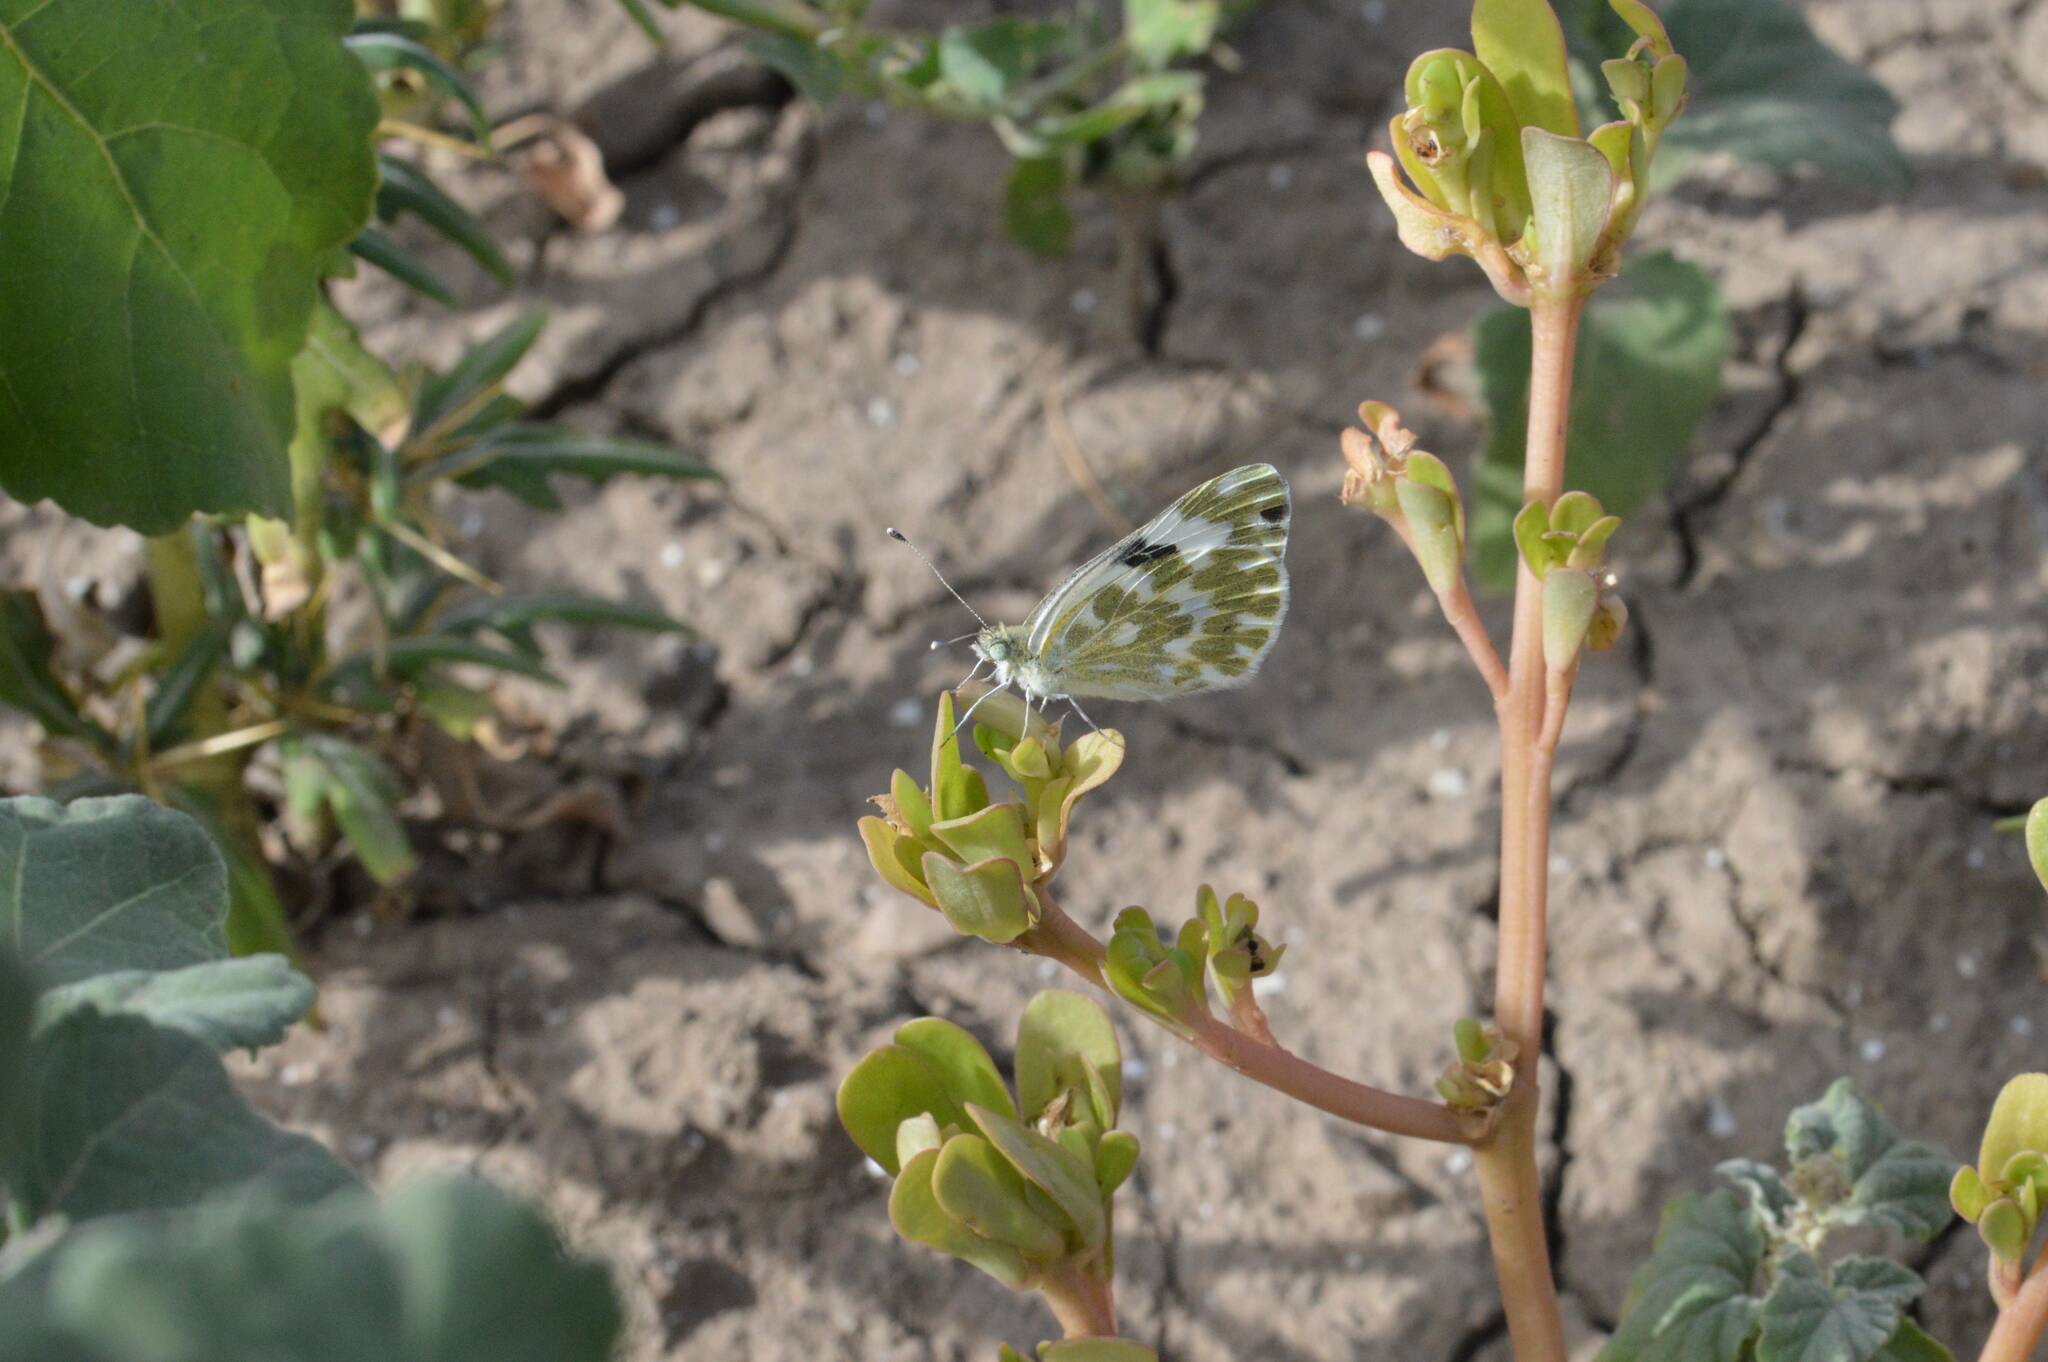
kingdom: Animalia
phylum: Arthropoda
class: Insecta
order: Lepidoptera
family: Pieridae
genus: Pontia
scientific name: Pontia daplidice
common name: Bath white
